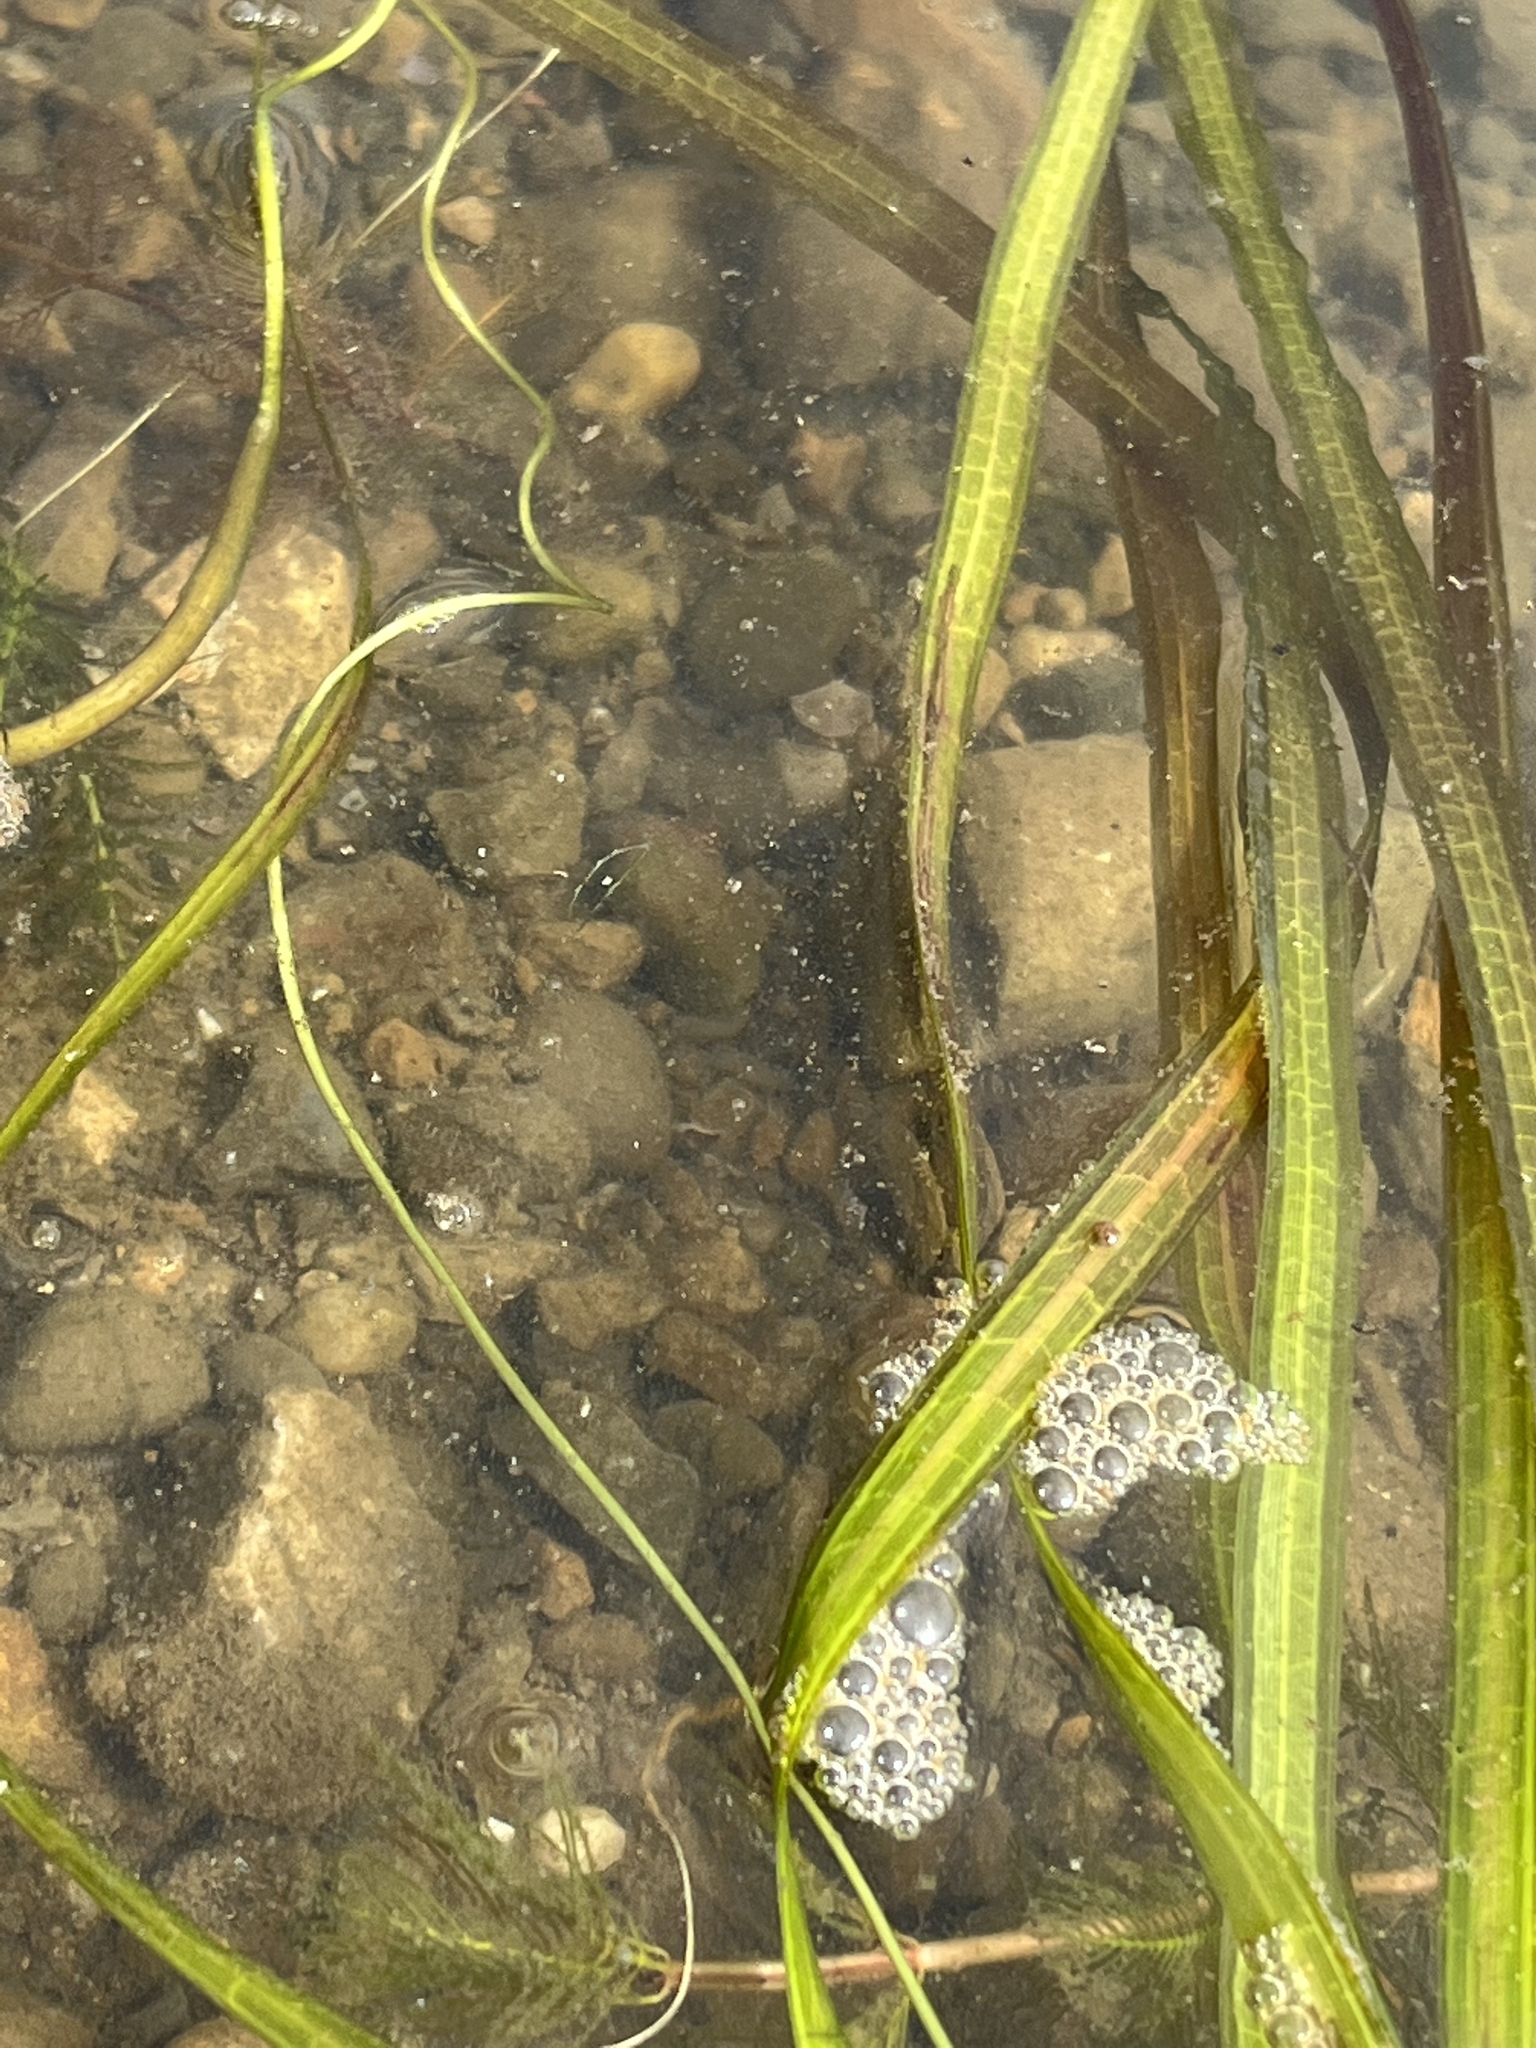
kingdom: Plantae
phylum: Tracheophyta
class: Liliopsida
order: Alismatales
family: Hydrocharitaceae
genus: Vallisneria
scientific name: Vallisneria americana
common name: American eelgrass
